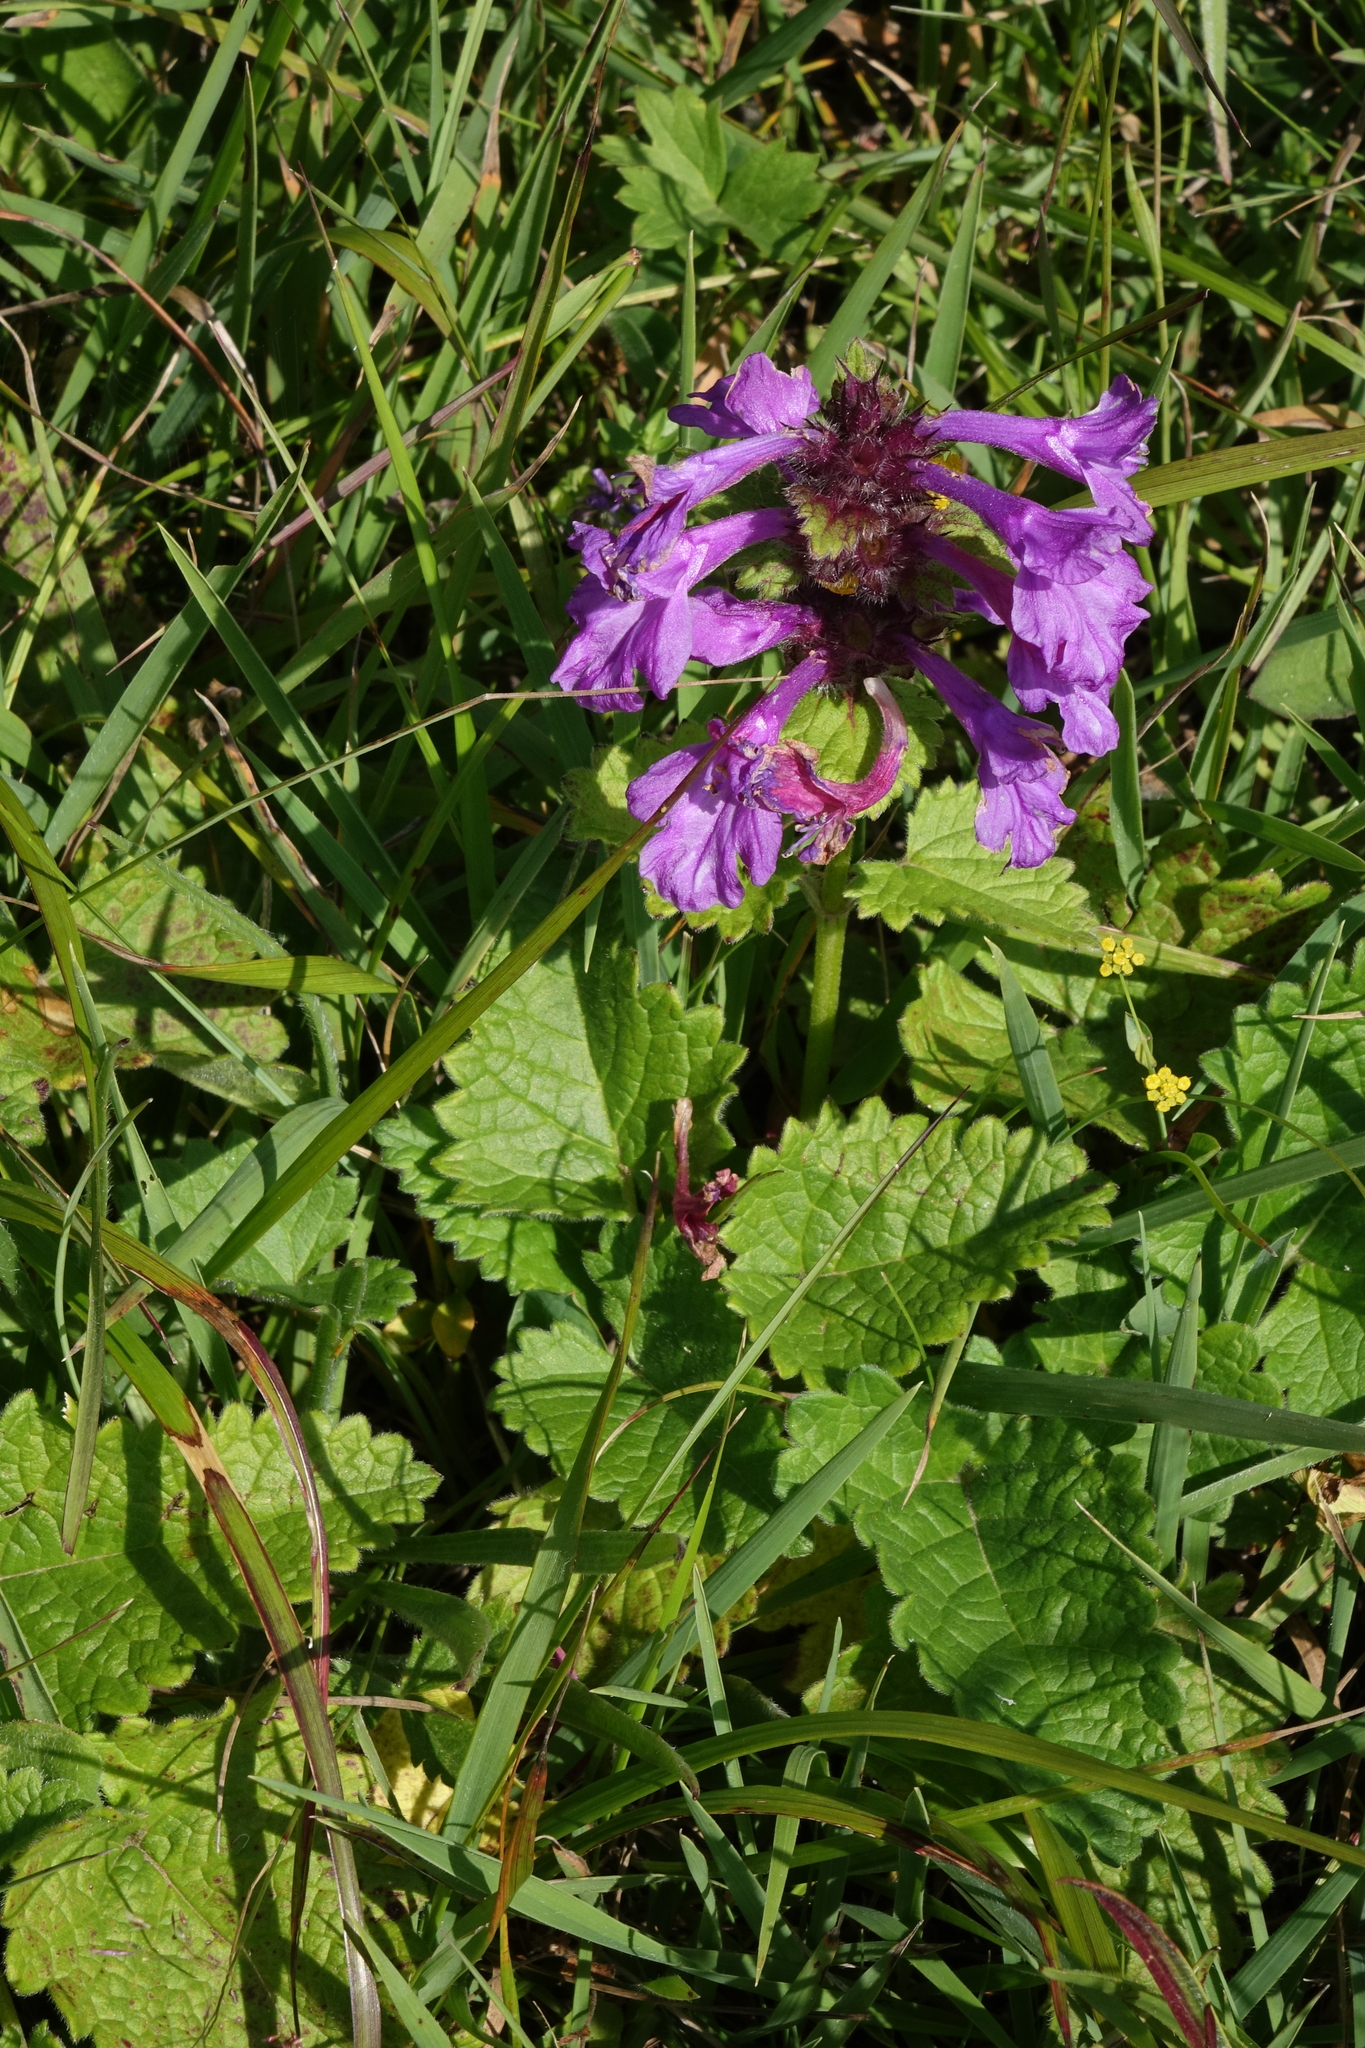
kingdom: Plantae
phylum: Tracheophyta
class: Magnoliopsida
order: Lamiales
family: Lamiaceae
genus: Betonica
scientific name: Betonica macrantha
